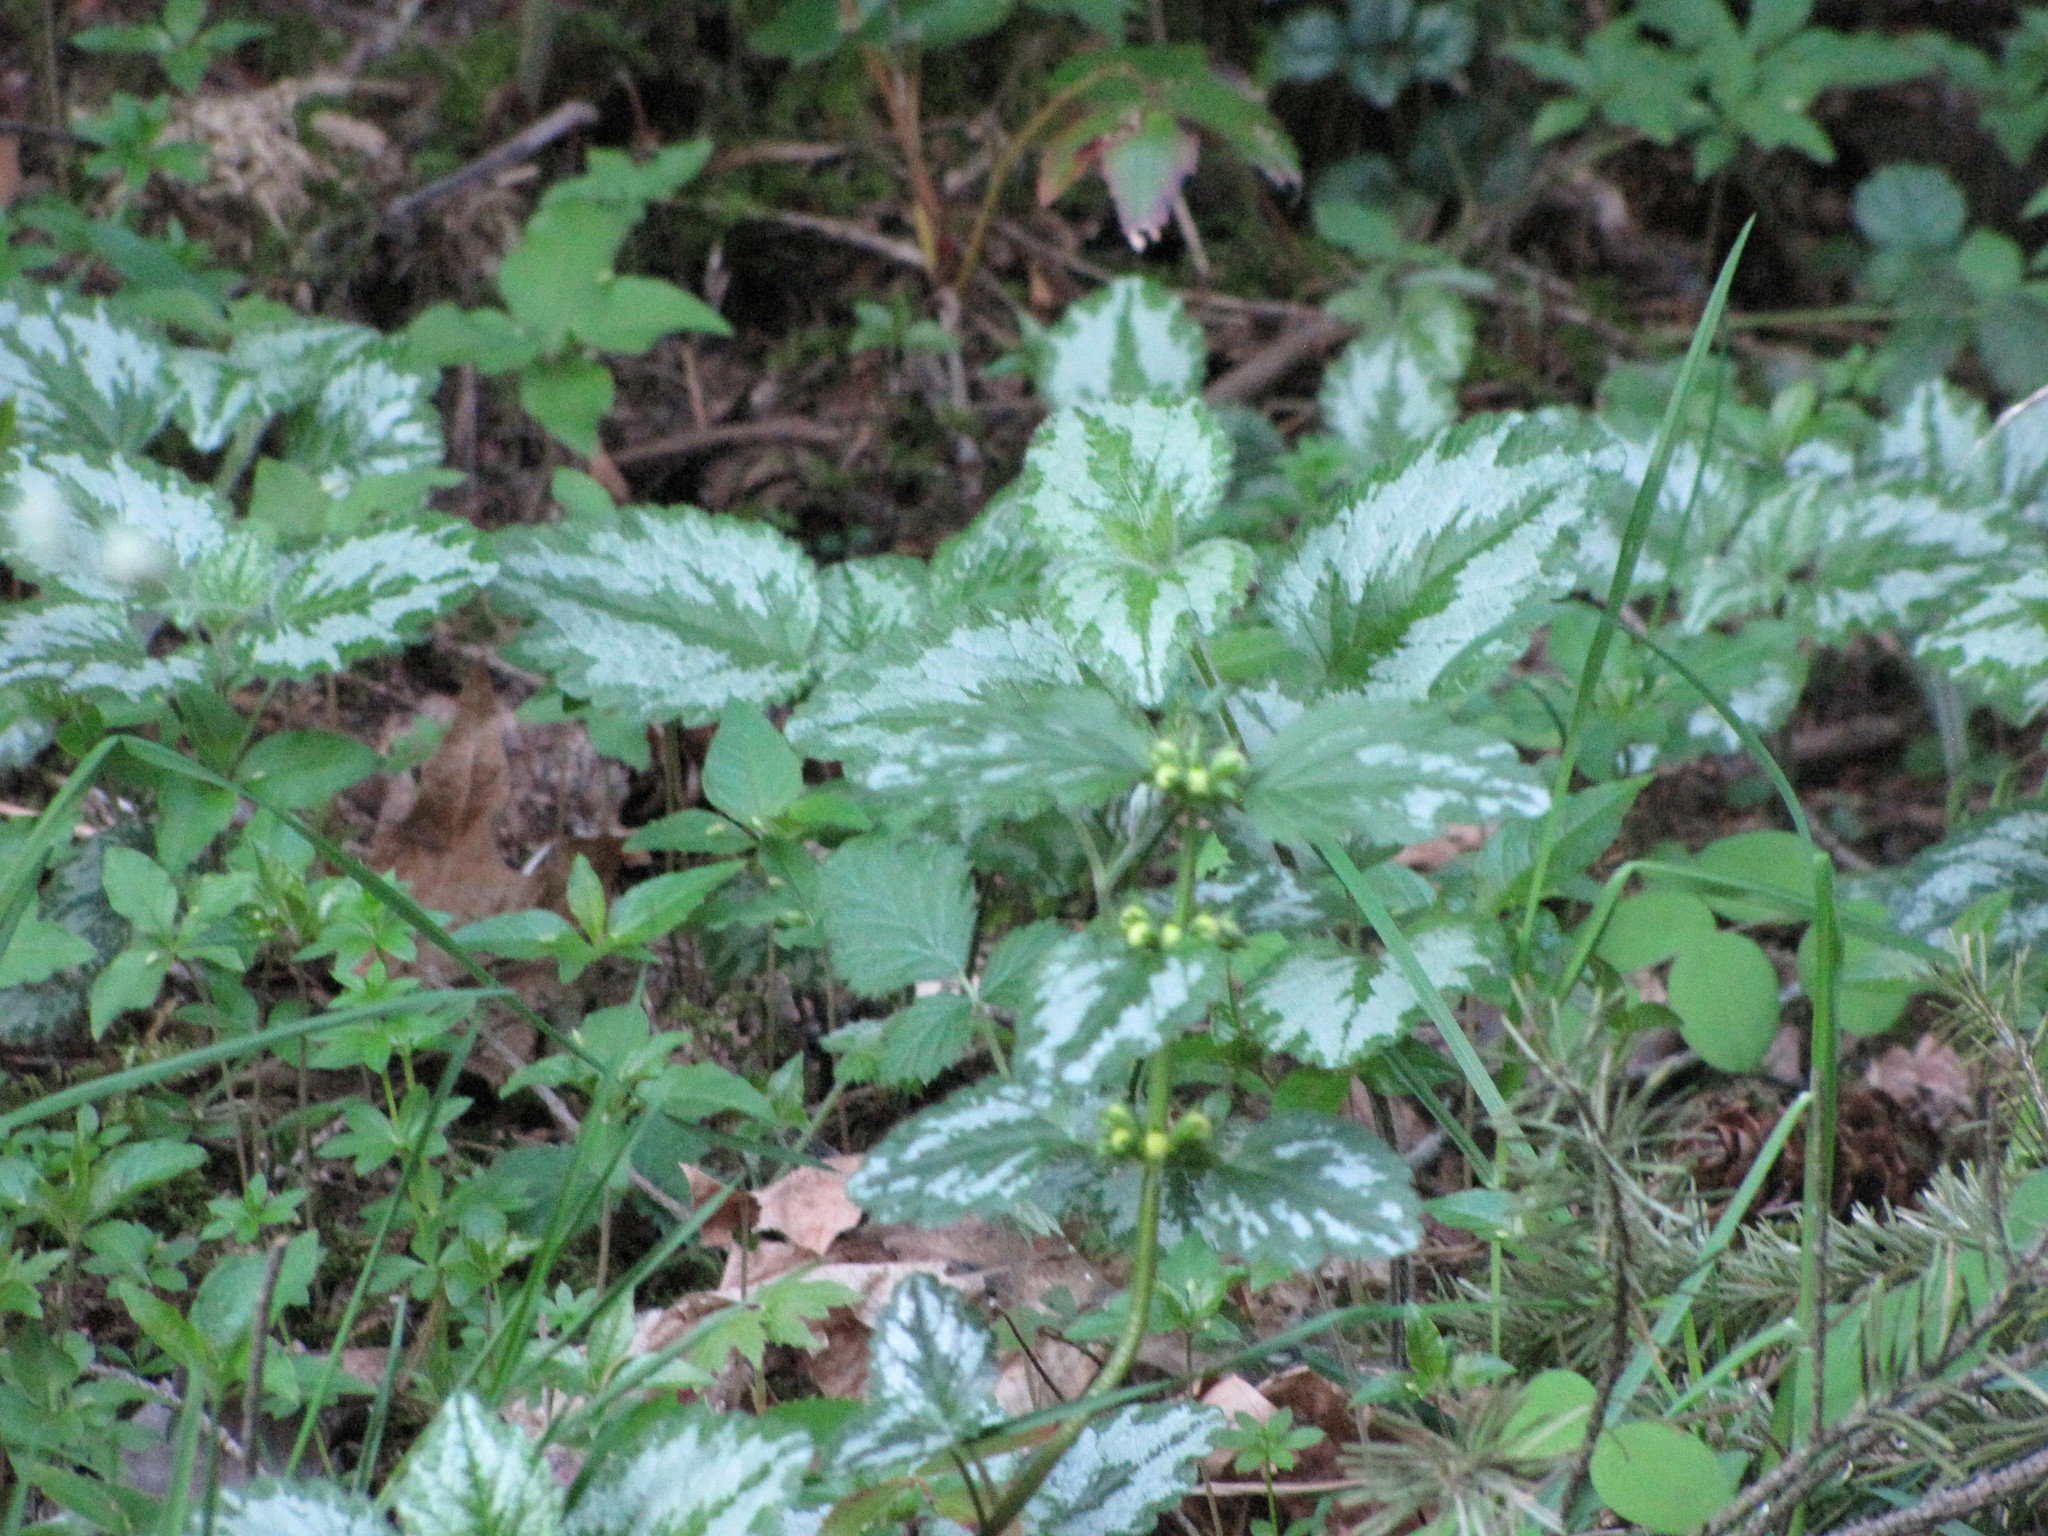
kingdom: Plantae
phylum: Tracheophyta
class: Magnoliopsida
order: Lamiales
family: Lamiaceae
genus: Lamium
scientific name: Lamium galeobdolon
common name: Yellow archangel
